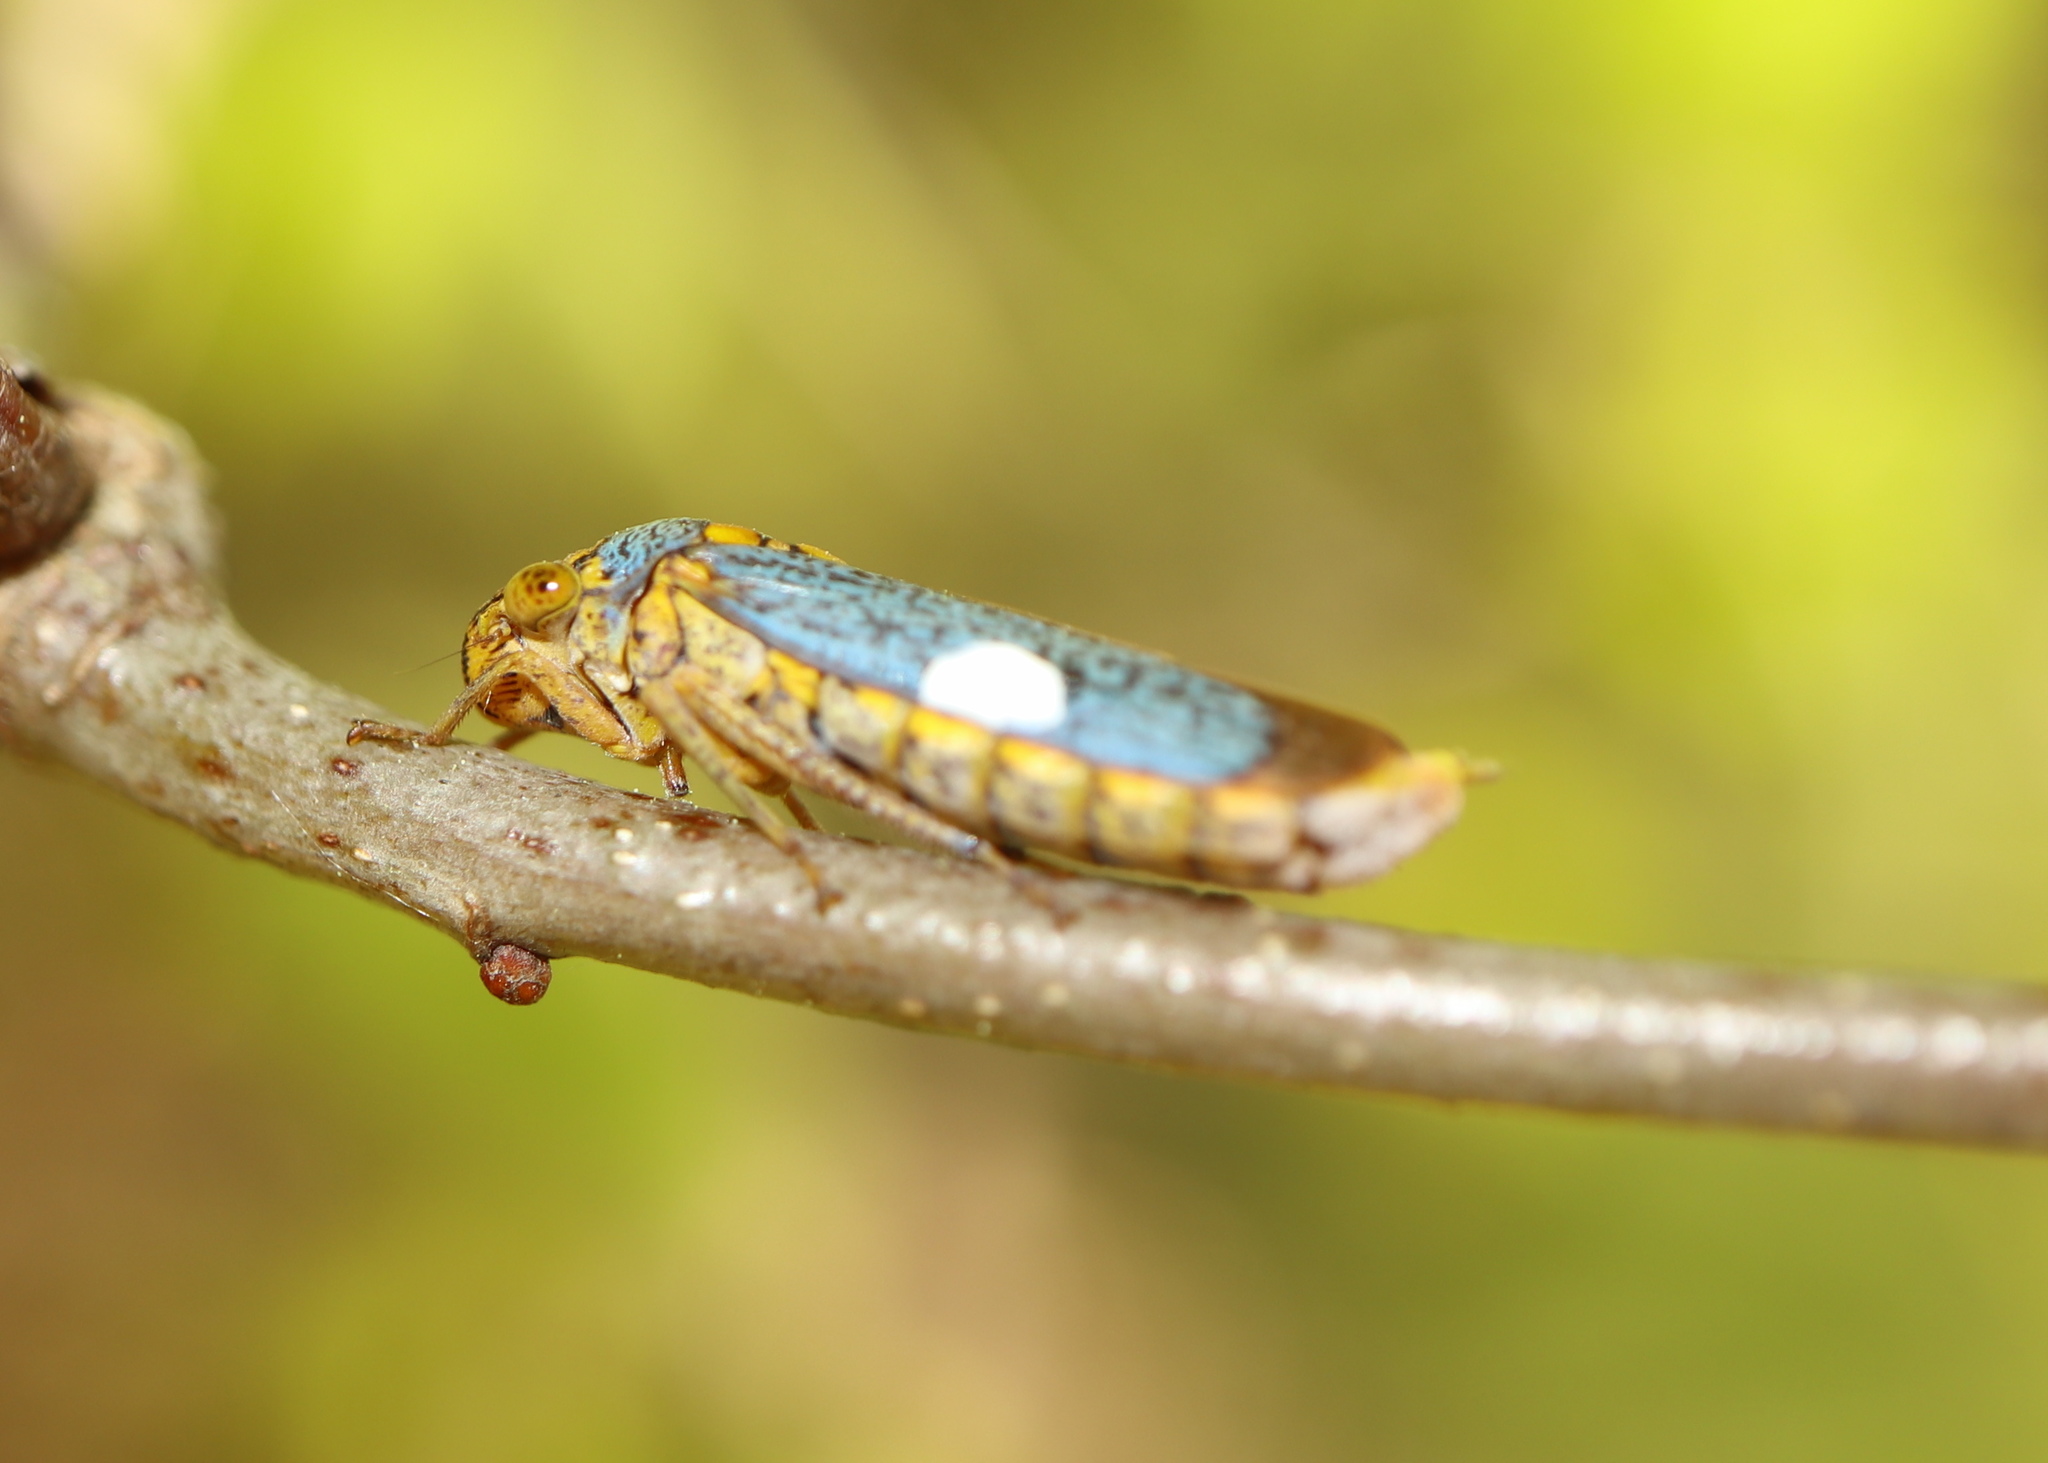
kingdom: Animalia
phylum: Arthropoda
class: Insecta
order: Hemiptera
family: Cicadellidae
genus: Oncometopia
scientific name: Oncometopia orbona
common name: Broad-headed sharpshooter
